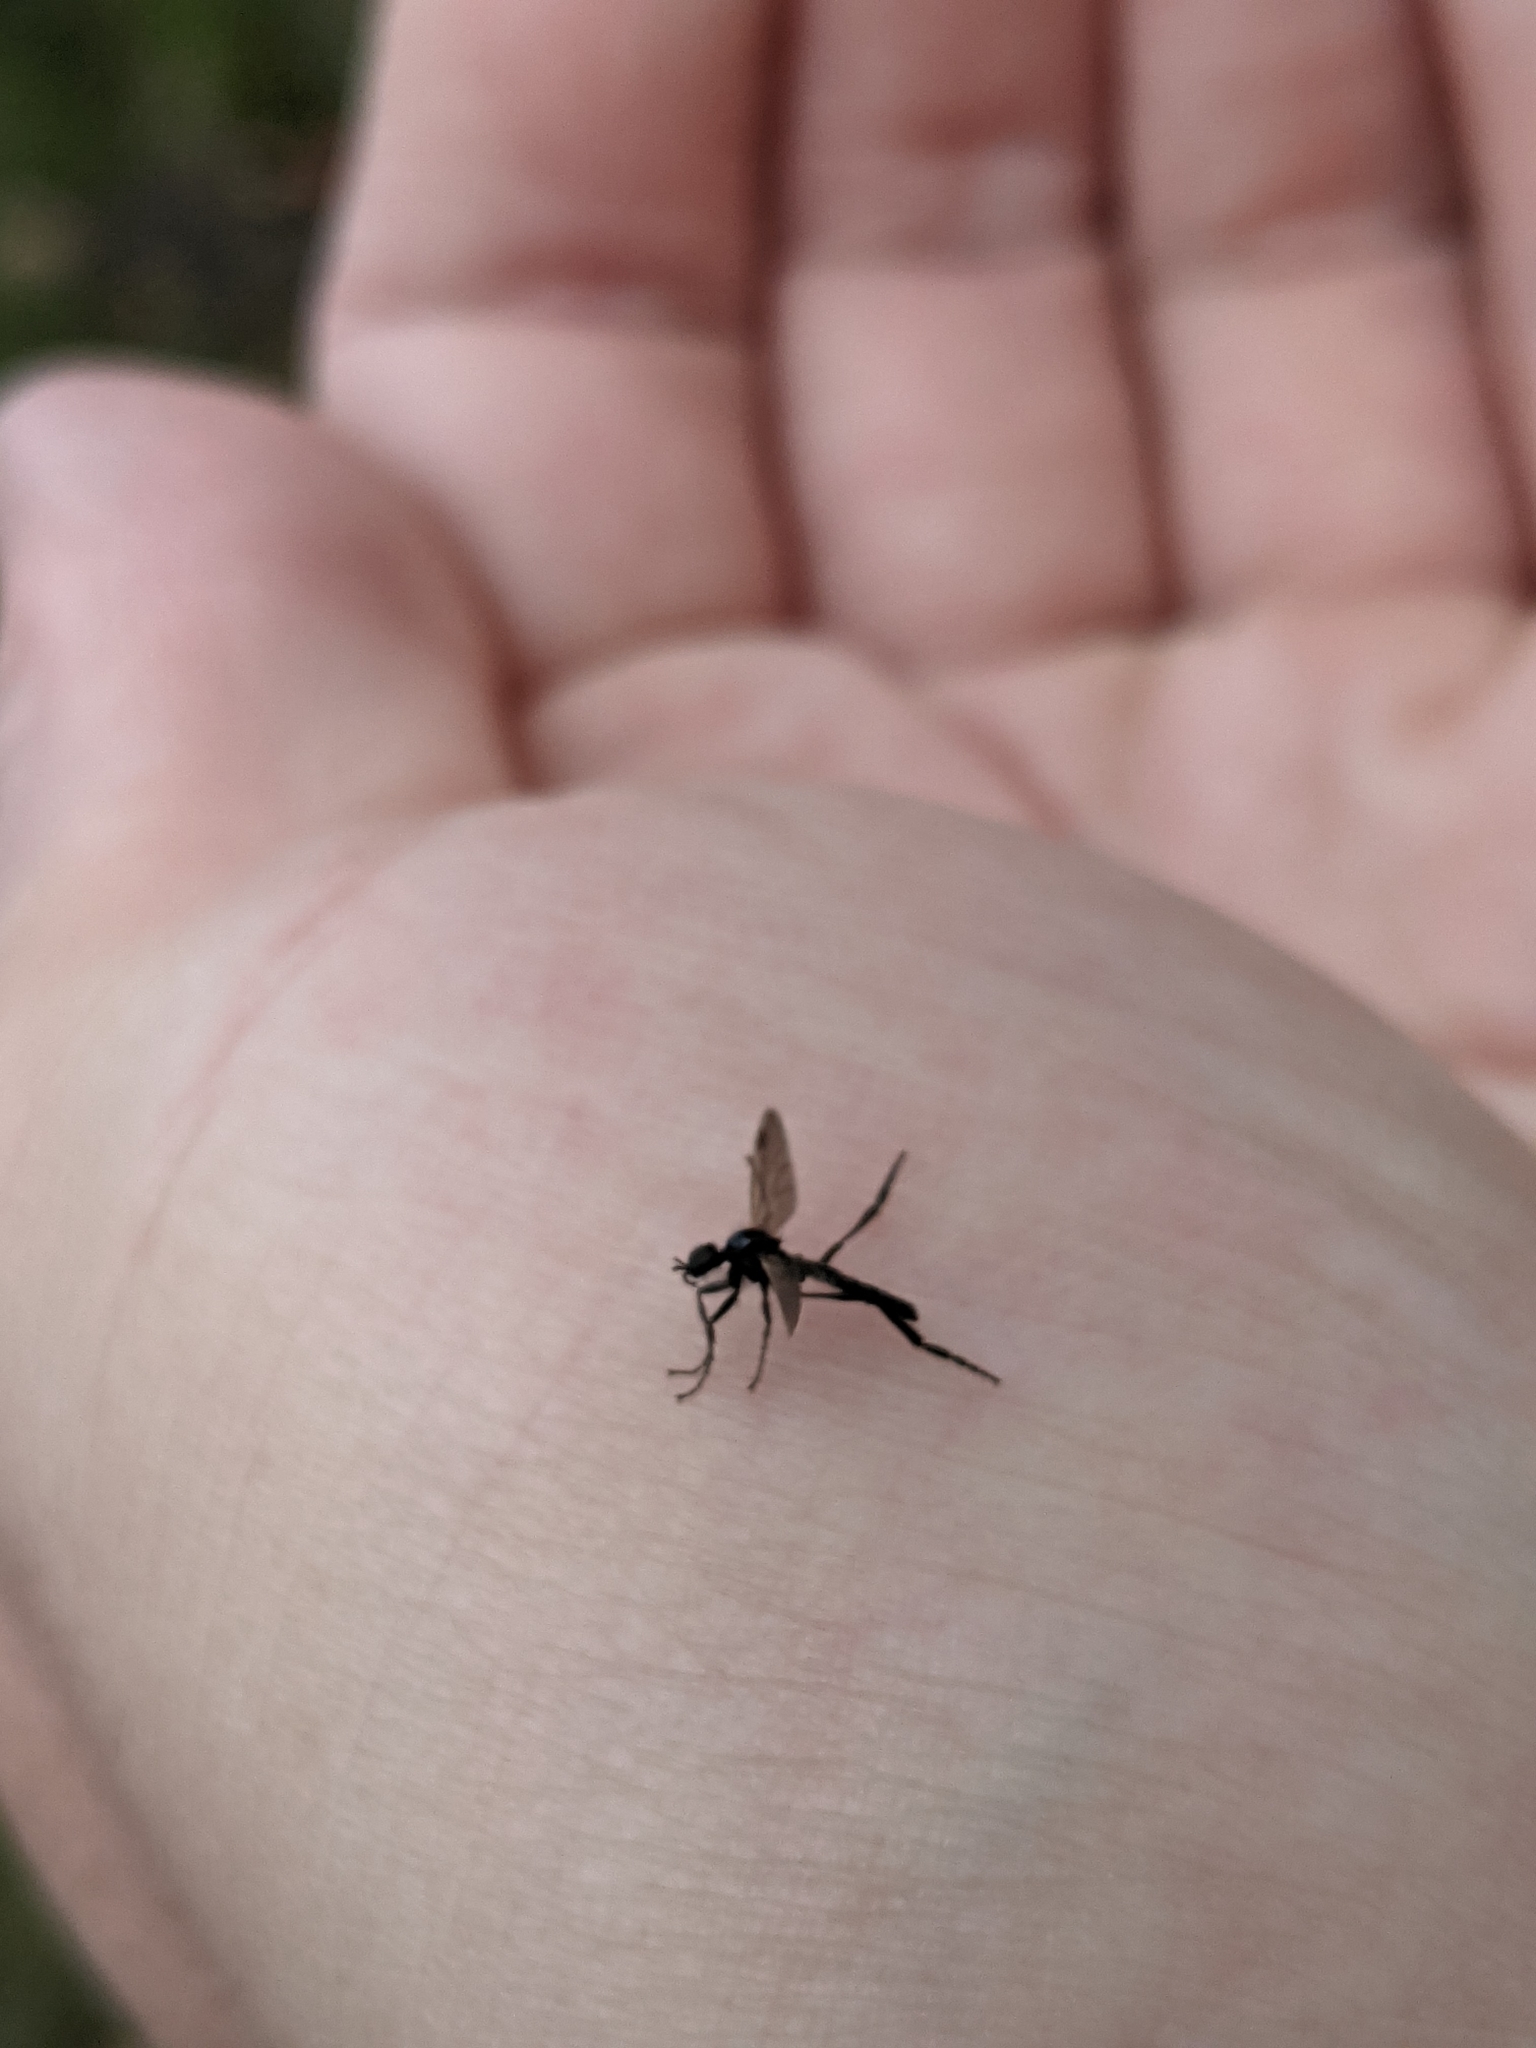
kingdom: Animalia
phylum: Arthropoda
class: Insecta
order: Diptera
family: Bibionidae
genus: Bibio
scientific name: Bibio slossonae
